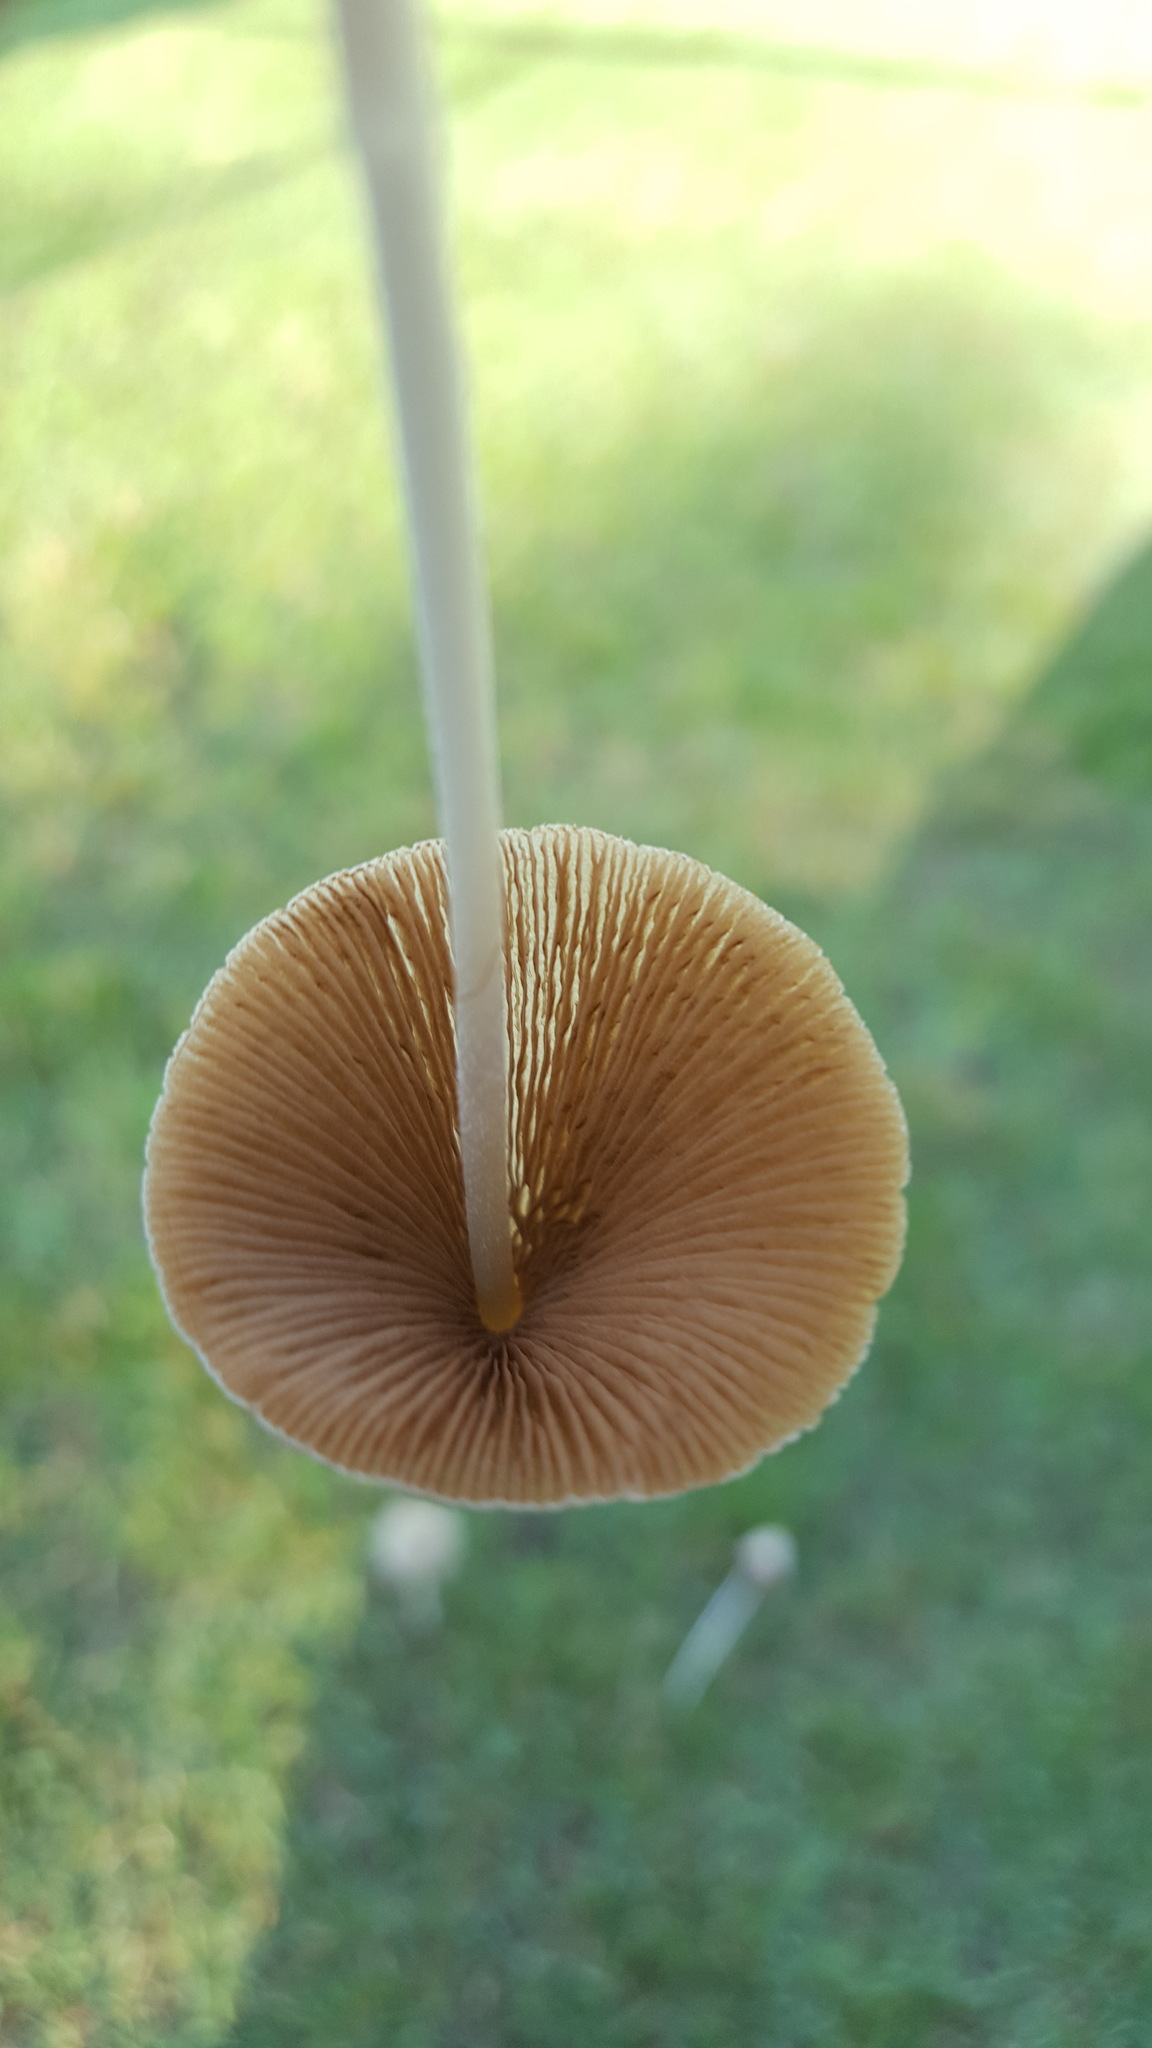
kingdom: Fungi
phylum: Basidiomycota
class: Agaricomycetes
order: Agaricales
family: Bolbitiaceae
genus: Conocybe
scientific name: Conocybe apala
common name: Milky conecap
